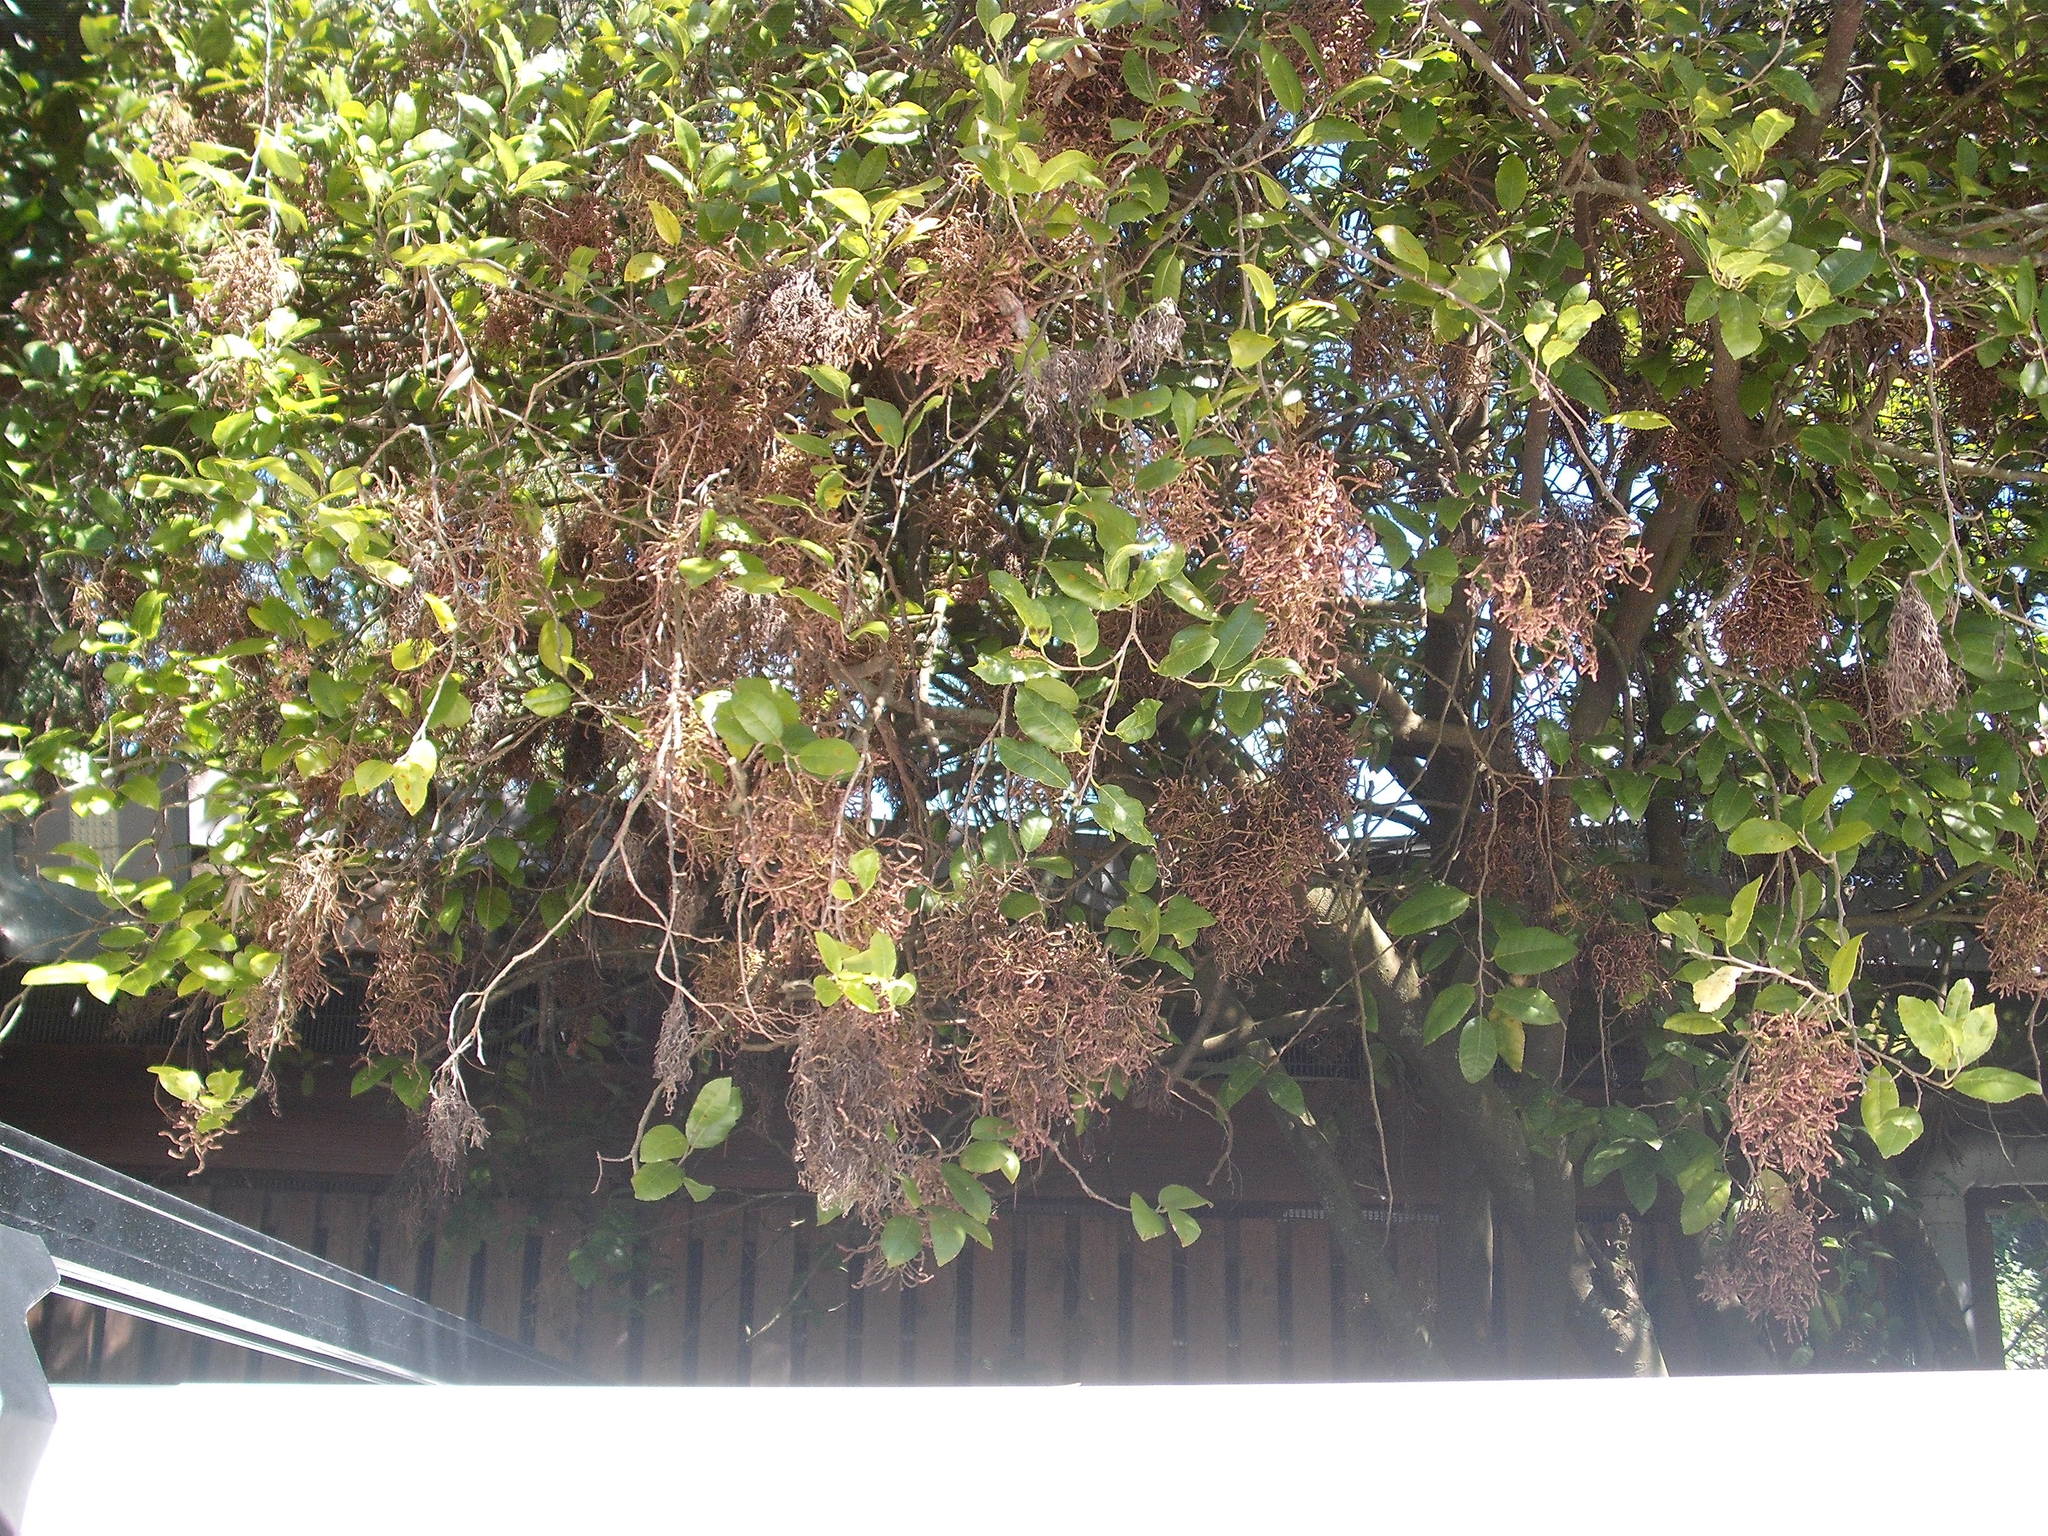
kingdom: Animalia
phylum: Arthropoda
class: Arachnida
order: Trombidiformes
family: Eriophyidae
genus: Eriophyes
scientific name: Eriophyes
